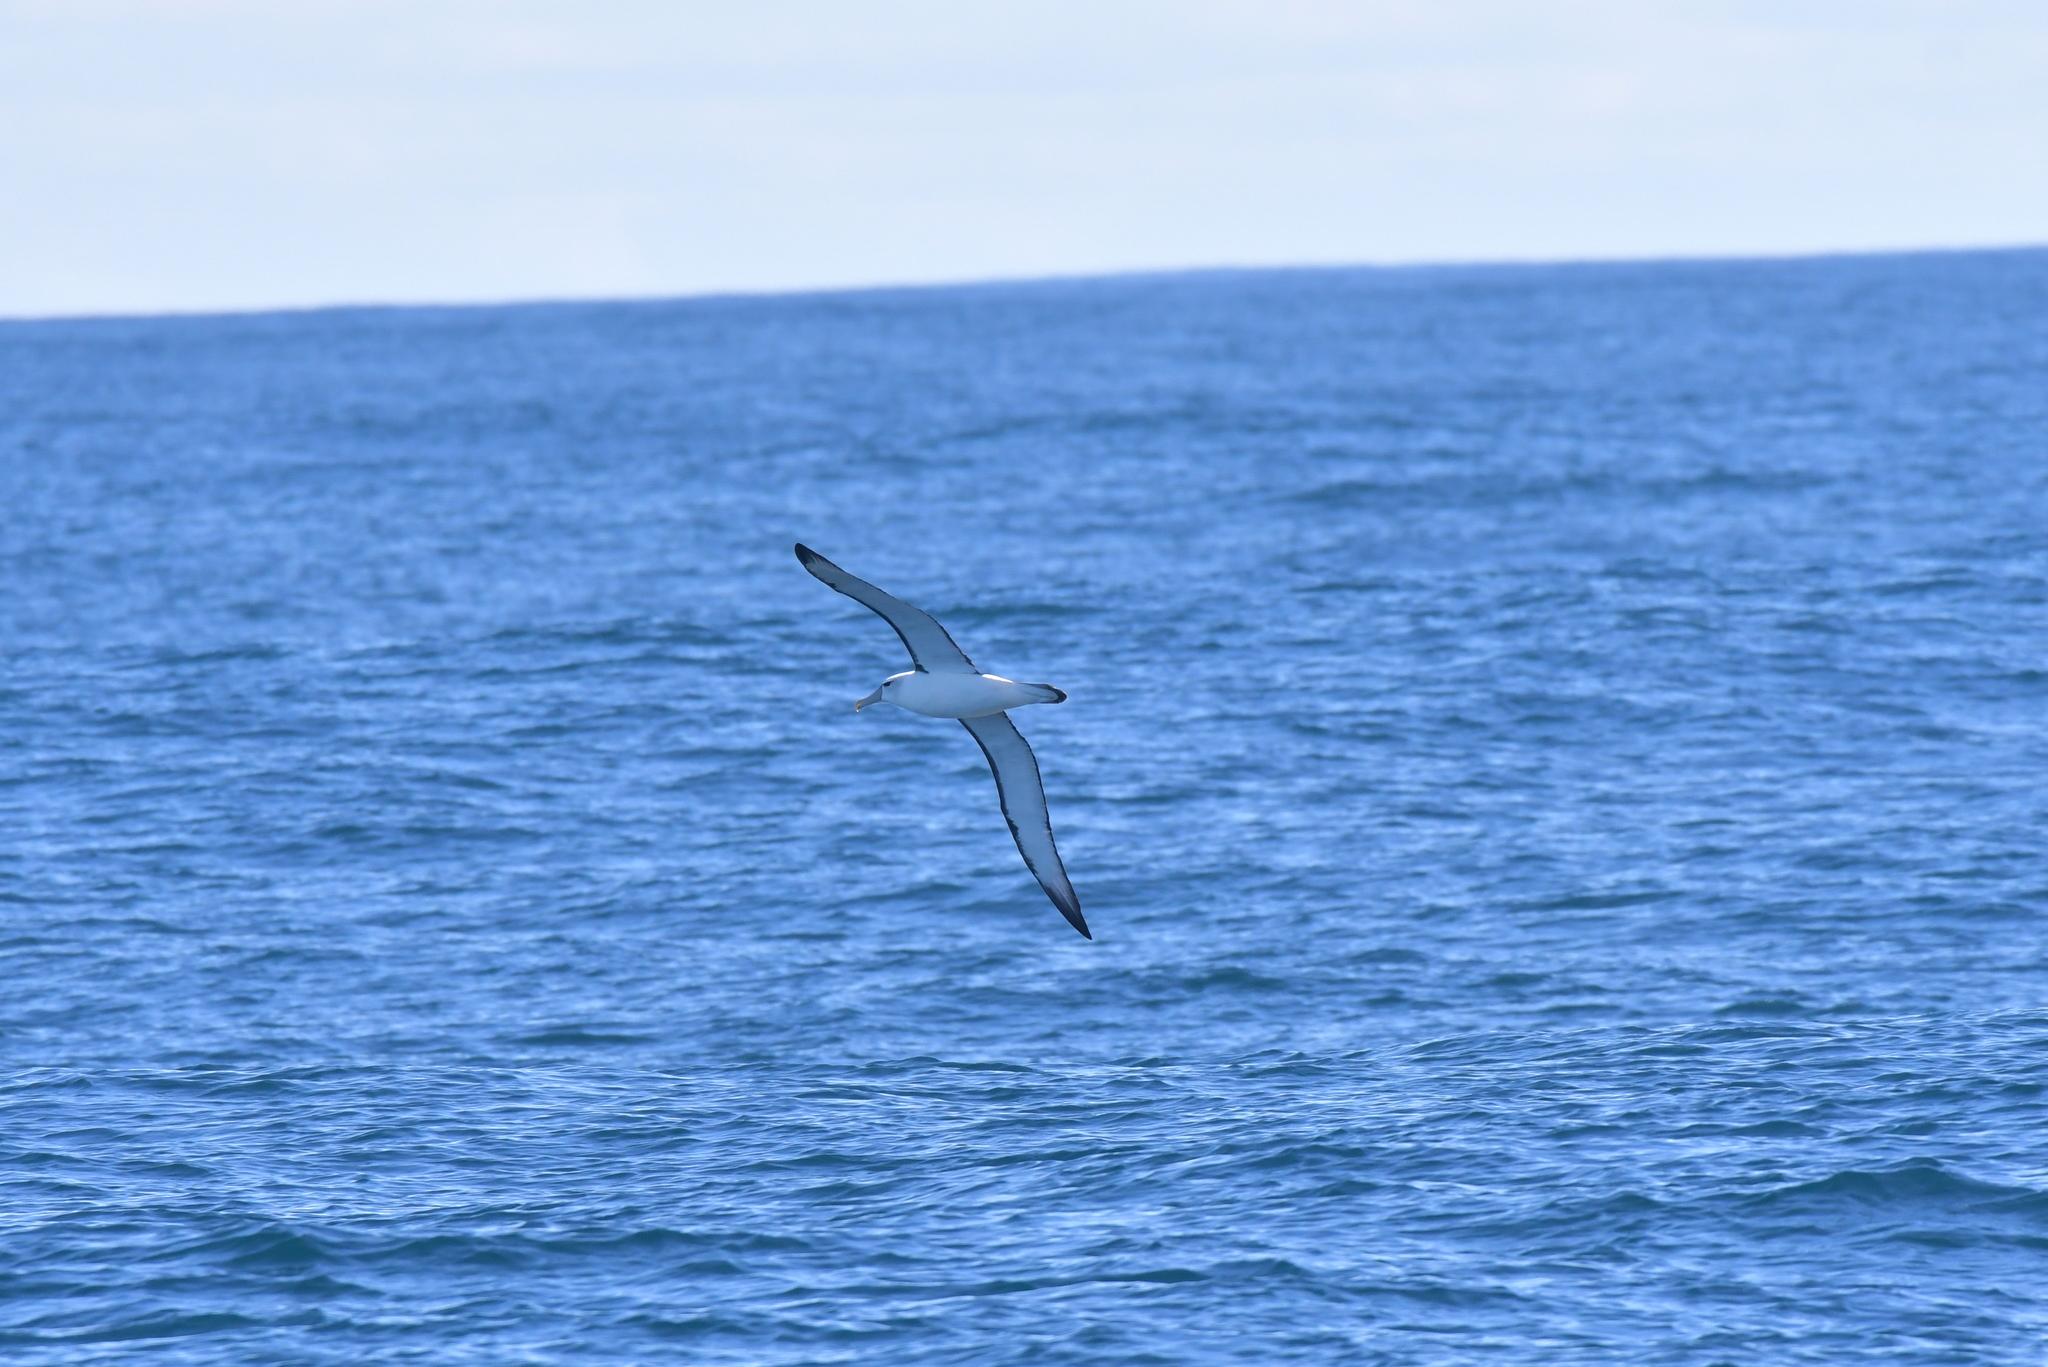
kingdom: Animalia
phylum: Chordata
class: Aves
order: Procellariiformes
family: Diomedeidae
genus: Thalassarche
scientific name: Thalassarche cauta
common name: Shy albatross
